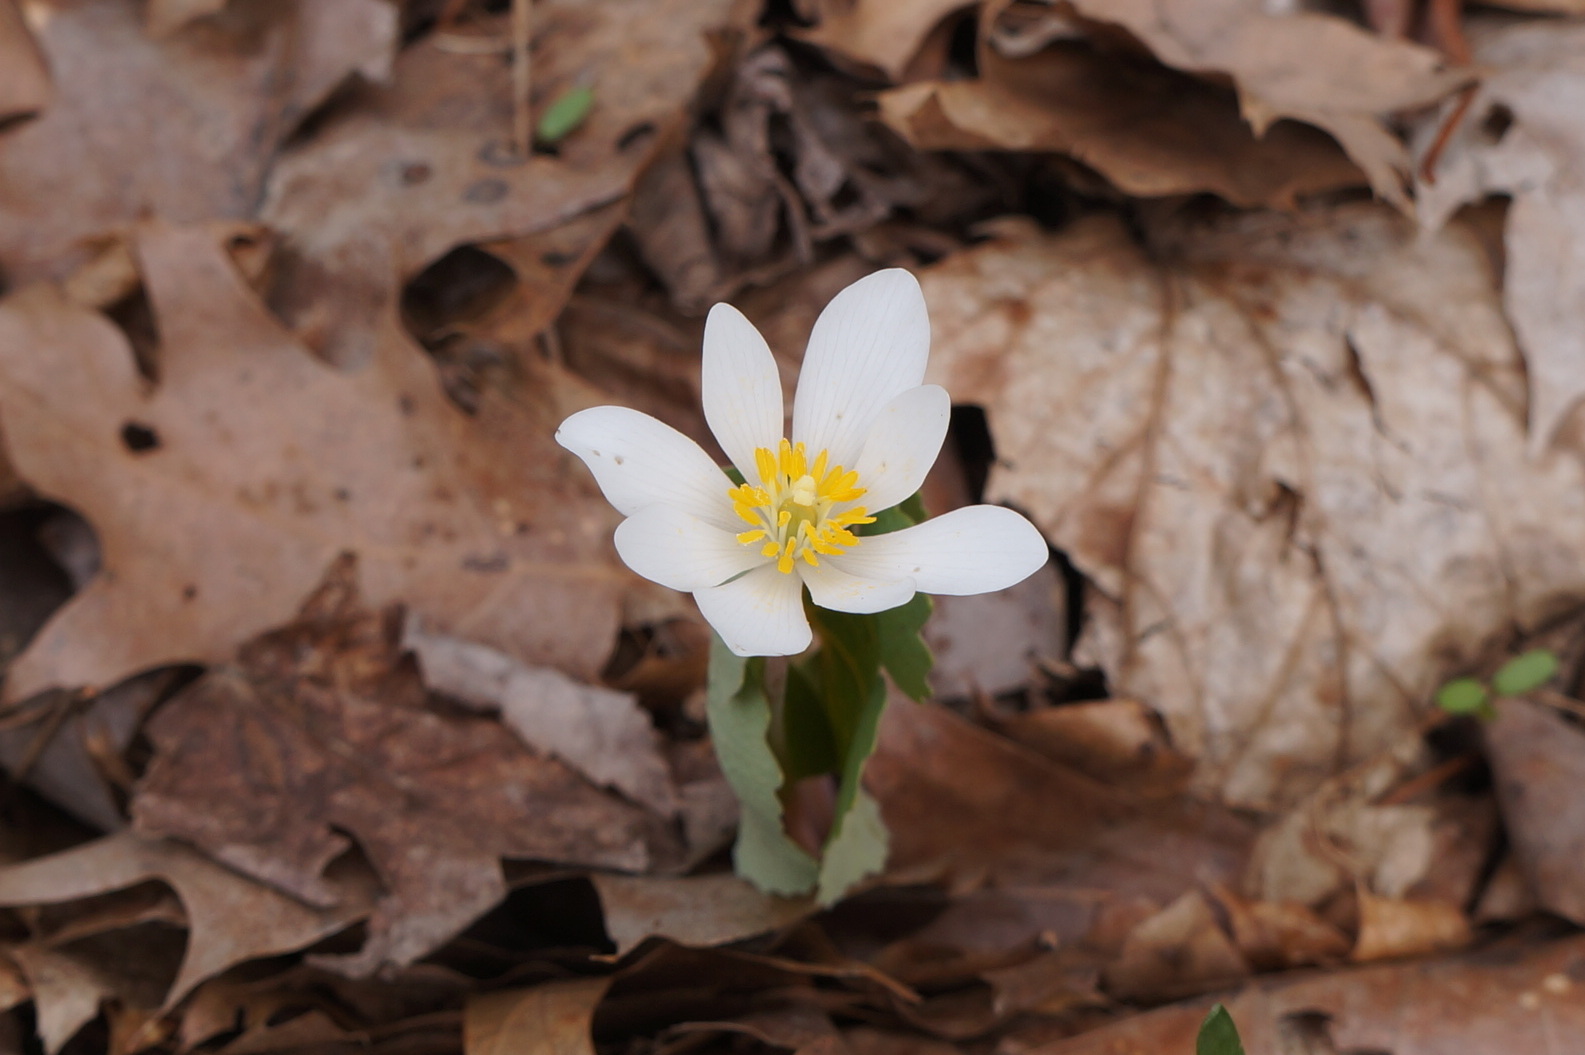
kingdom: Plantae
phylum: Tracheophyta
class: Magnoliopsida
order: Ranunculales
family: Papaveraceae
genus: Sanguinaria
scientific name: Sanguinaria canadensis
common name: Bloodroot
